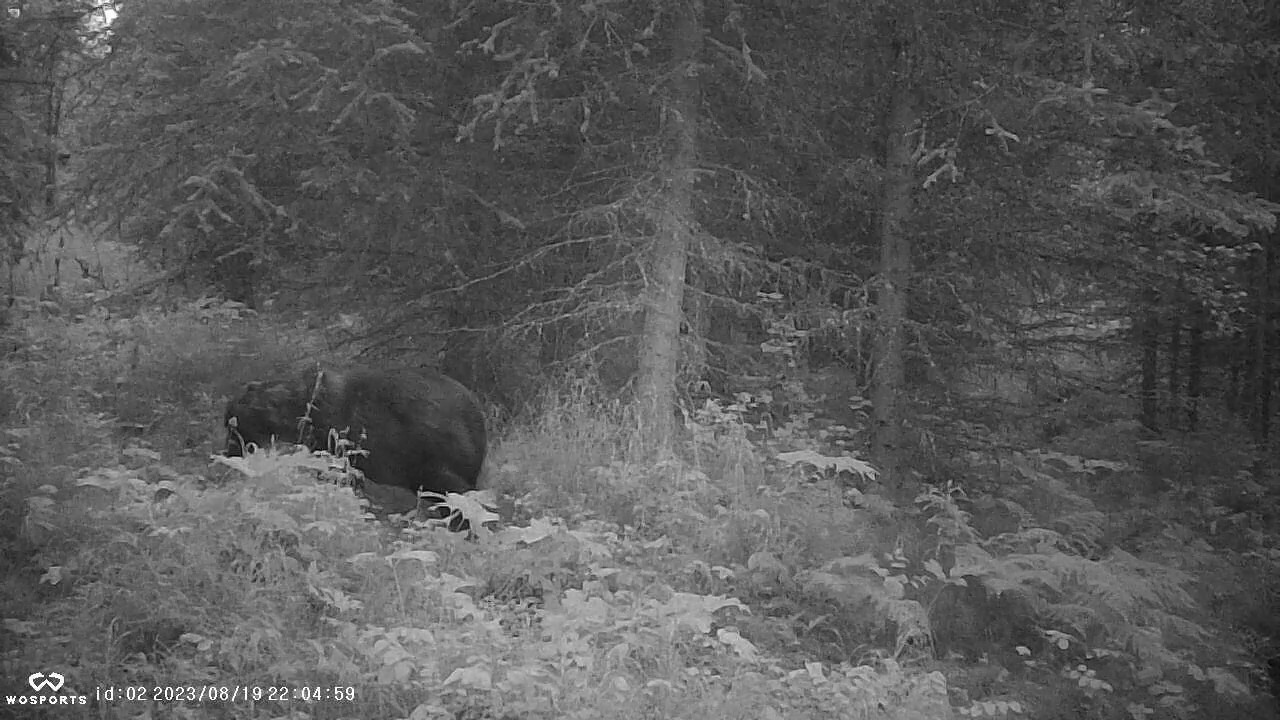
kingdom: Animalia
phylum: Chordata
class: Mammalia
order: Carnivora
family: Ursidae
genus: Ursus
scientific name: Ursus arctos
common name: Brown bear
